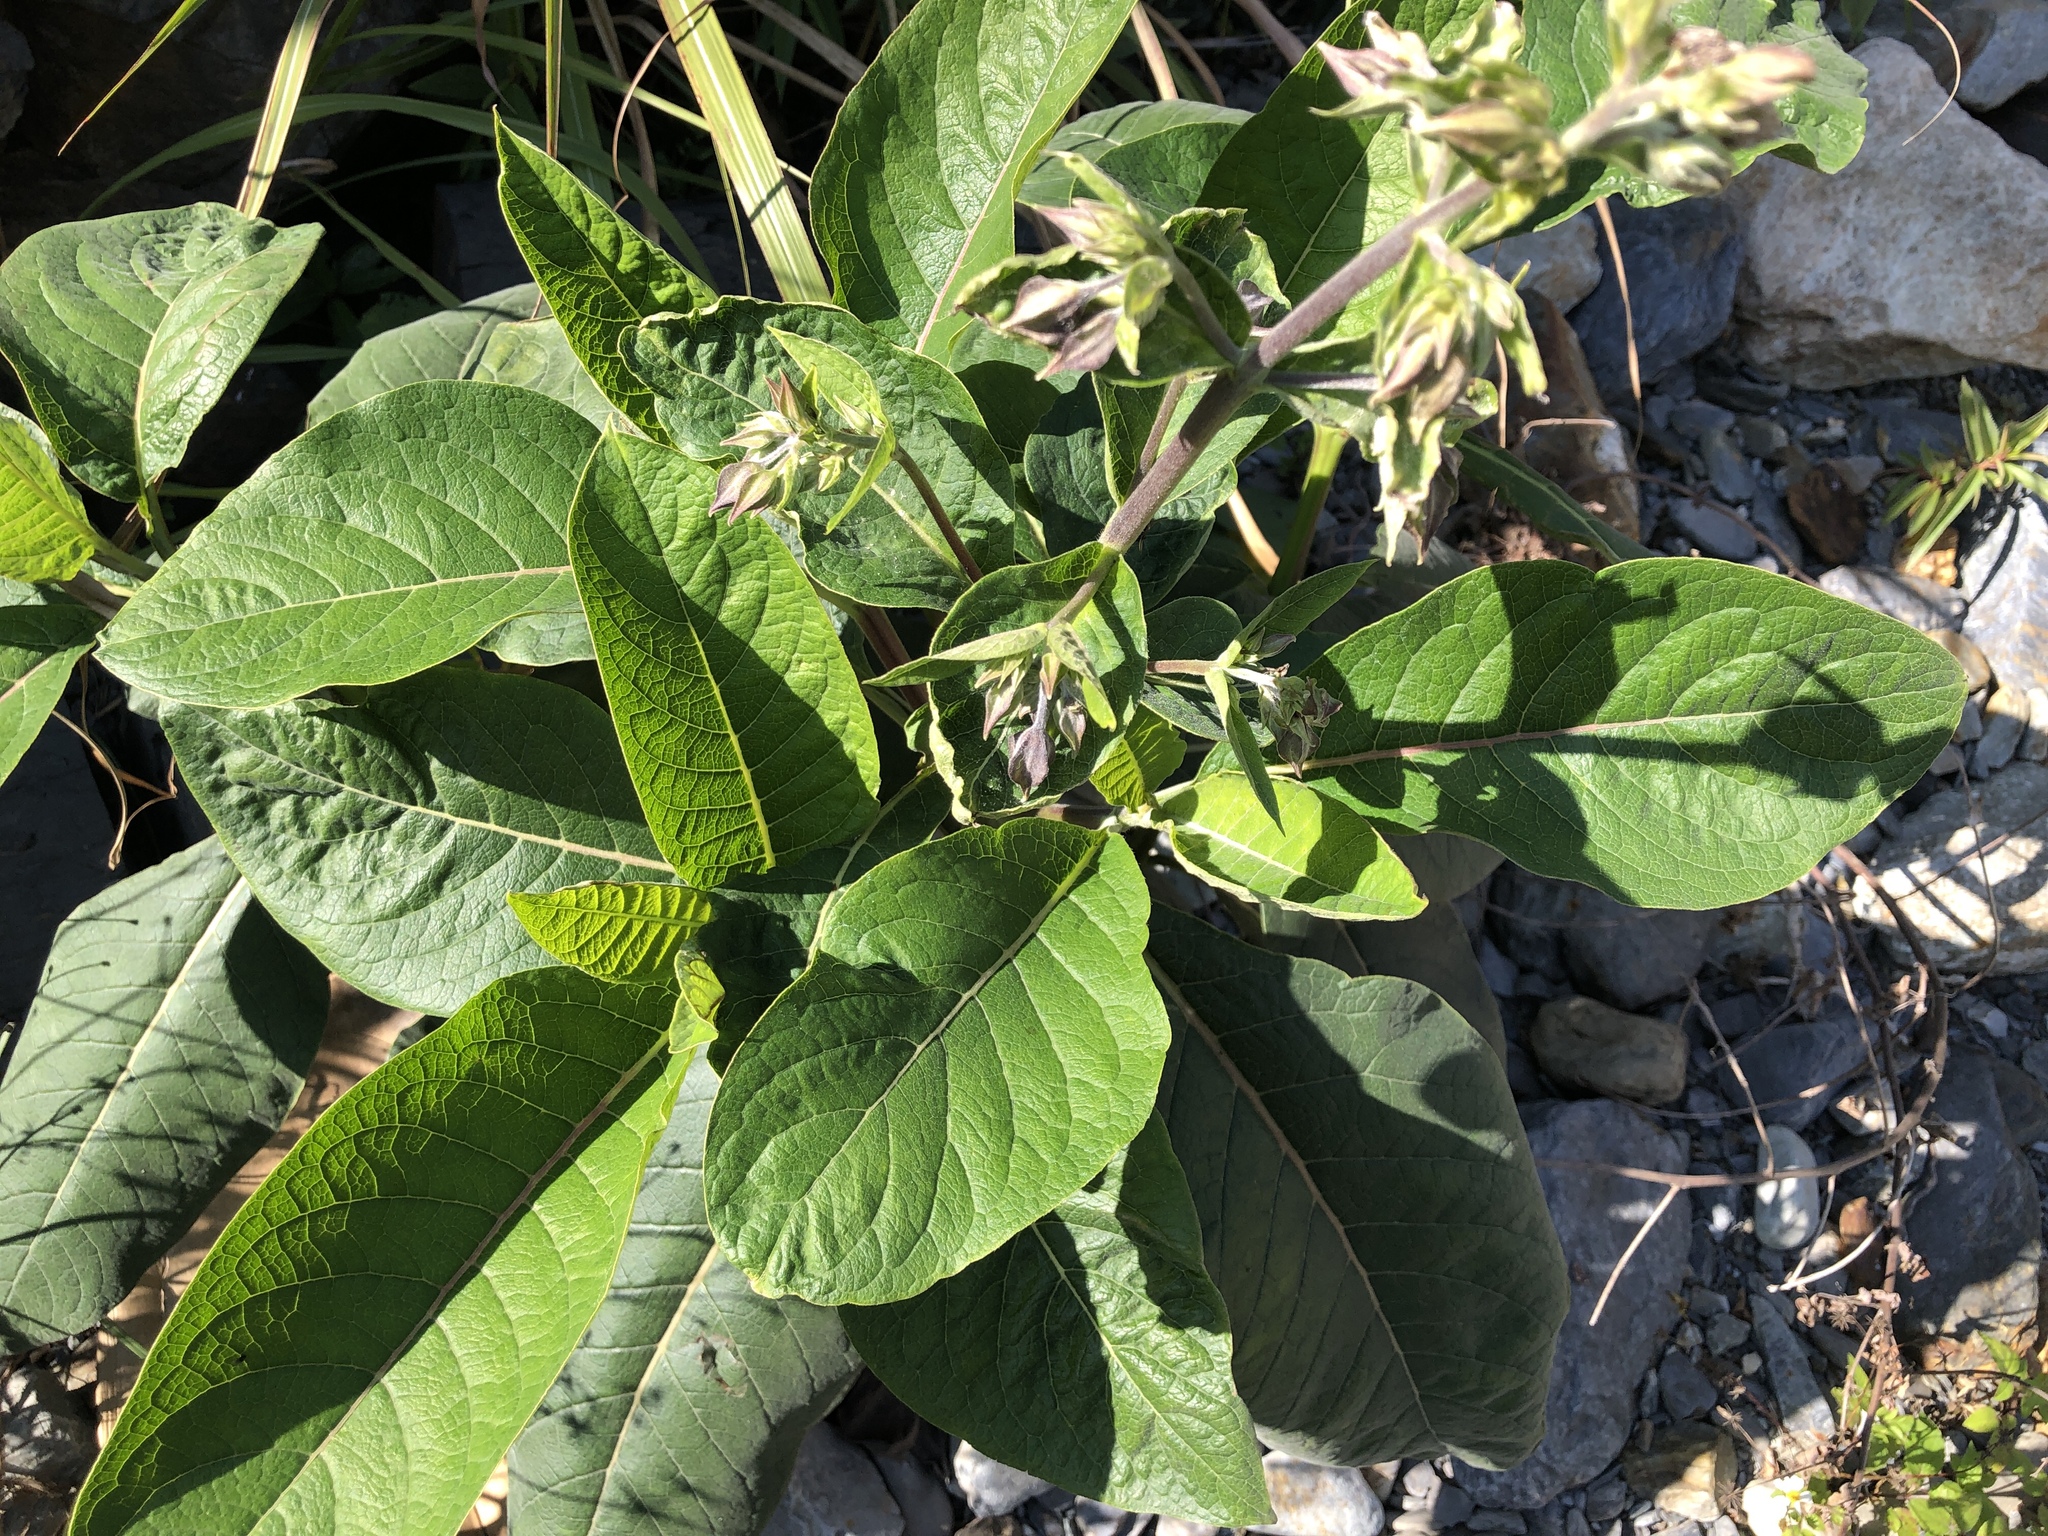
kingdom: Plantae
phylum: Tracheophyta
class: Magnoliopsida
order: Boraginales
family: Boraginaceae
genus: Trichodesma
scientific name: Trichodesma calycosum
